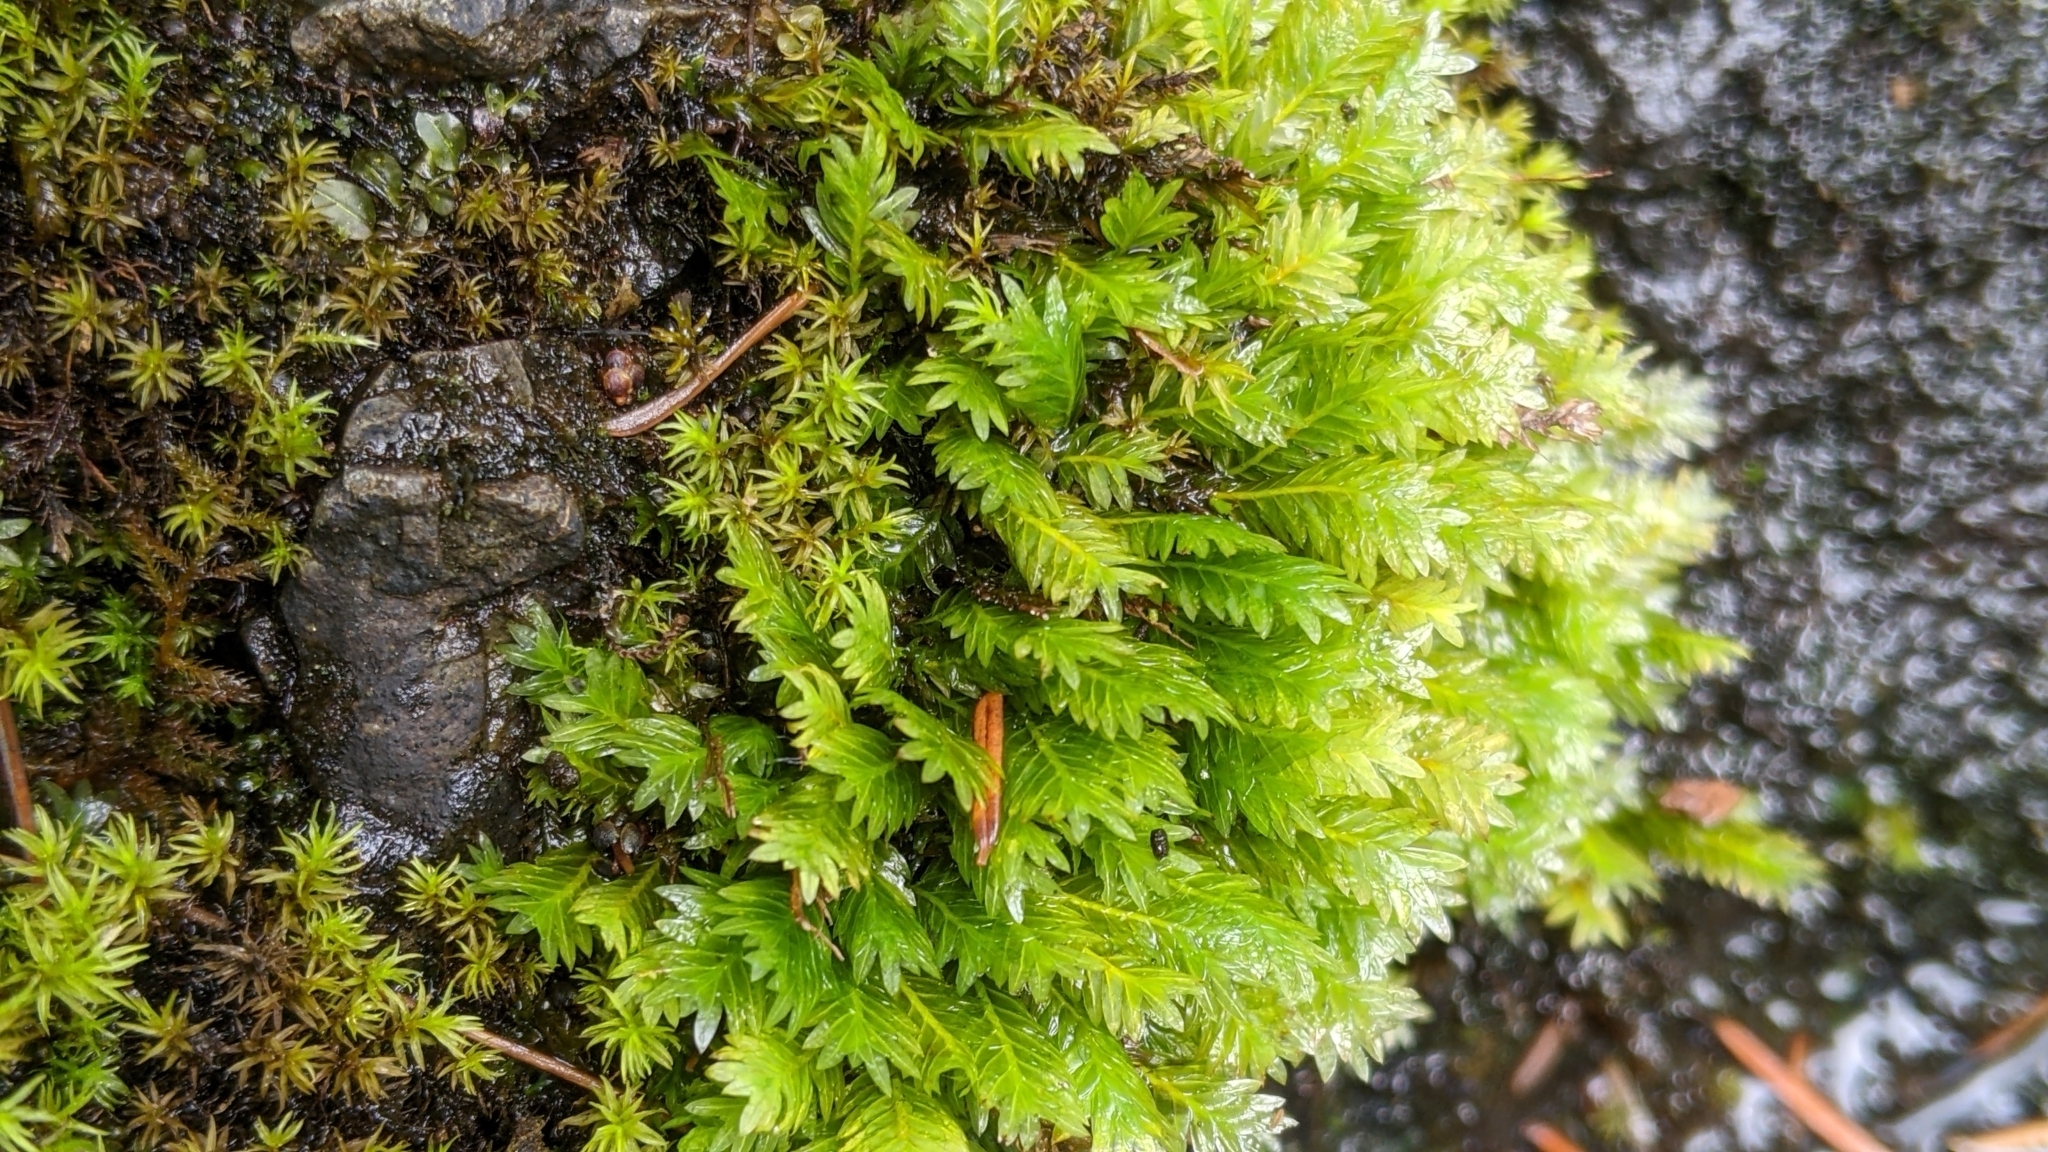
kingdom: Plantae
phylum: Bryophyta
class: Bryopsida
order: Dicranales
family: Fissidentaceae
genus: Fissidens
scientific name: Fissidens adianthoides
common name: Maidenhair pocket moss
